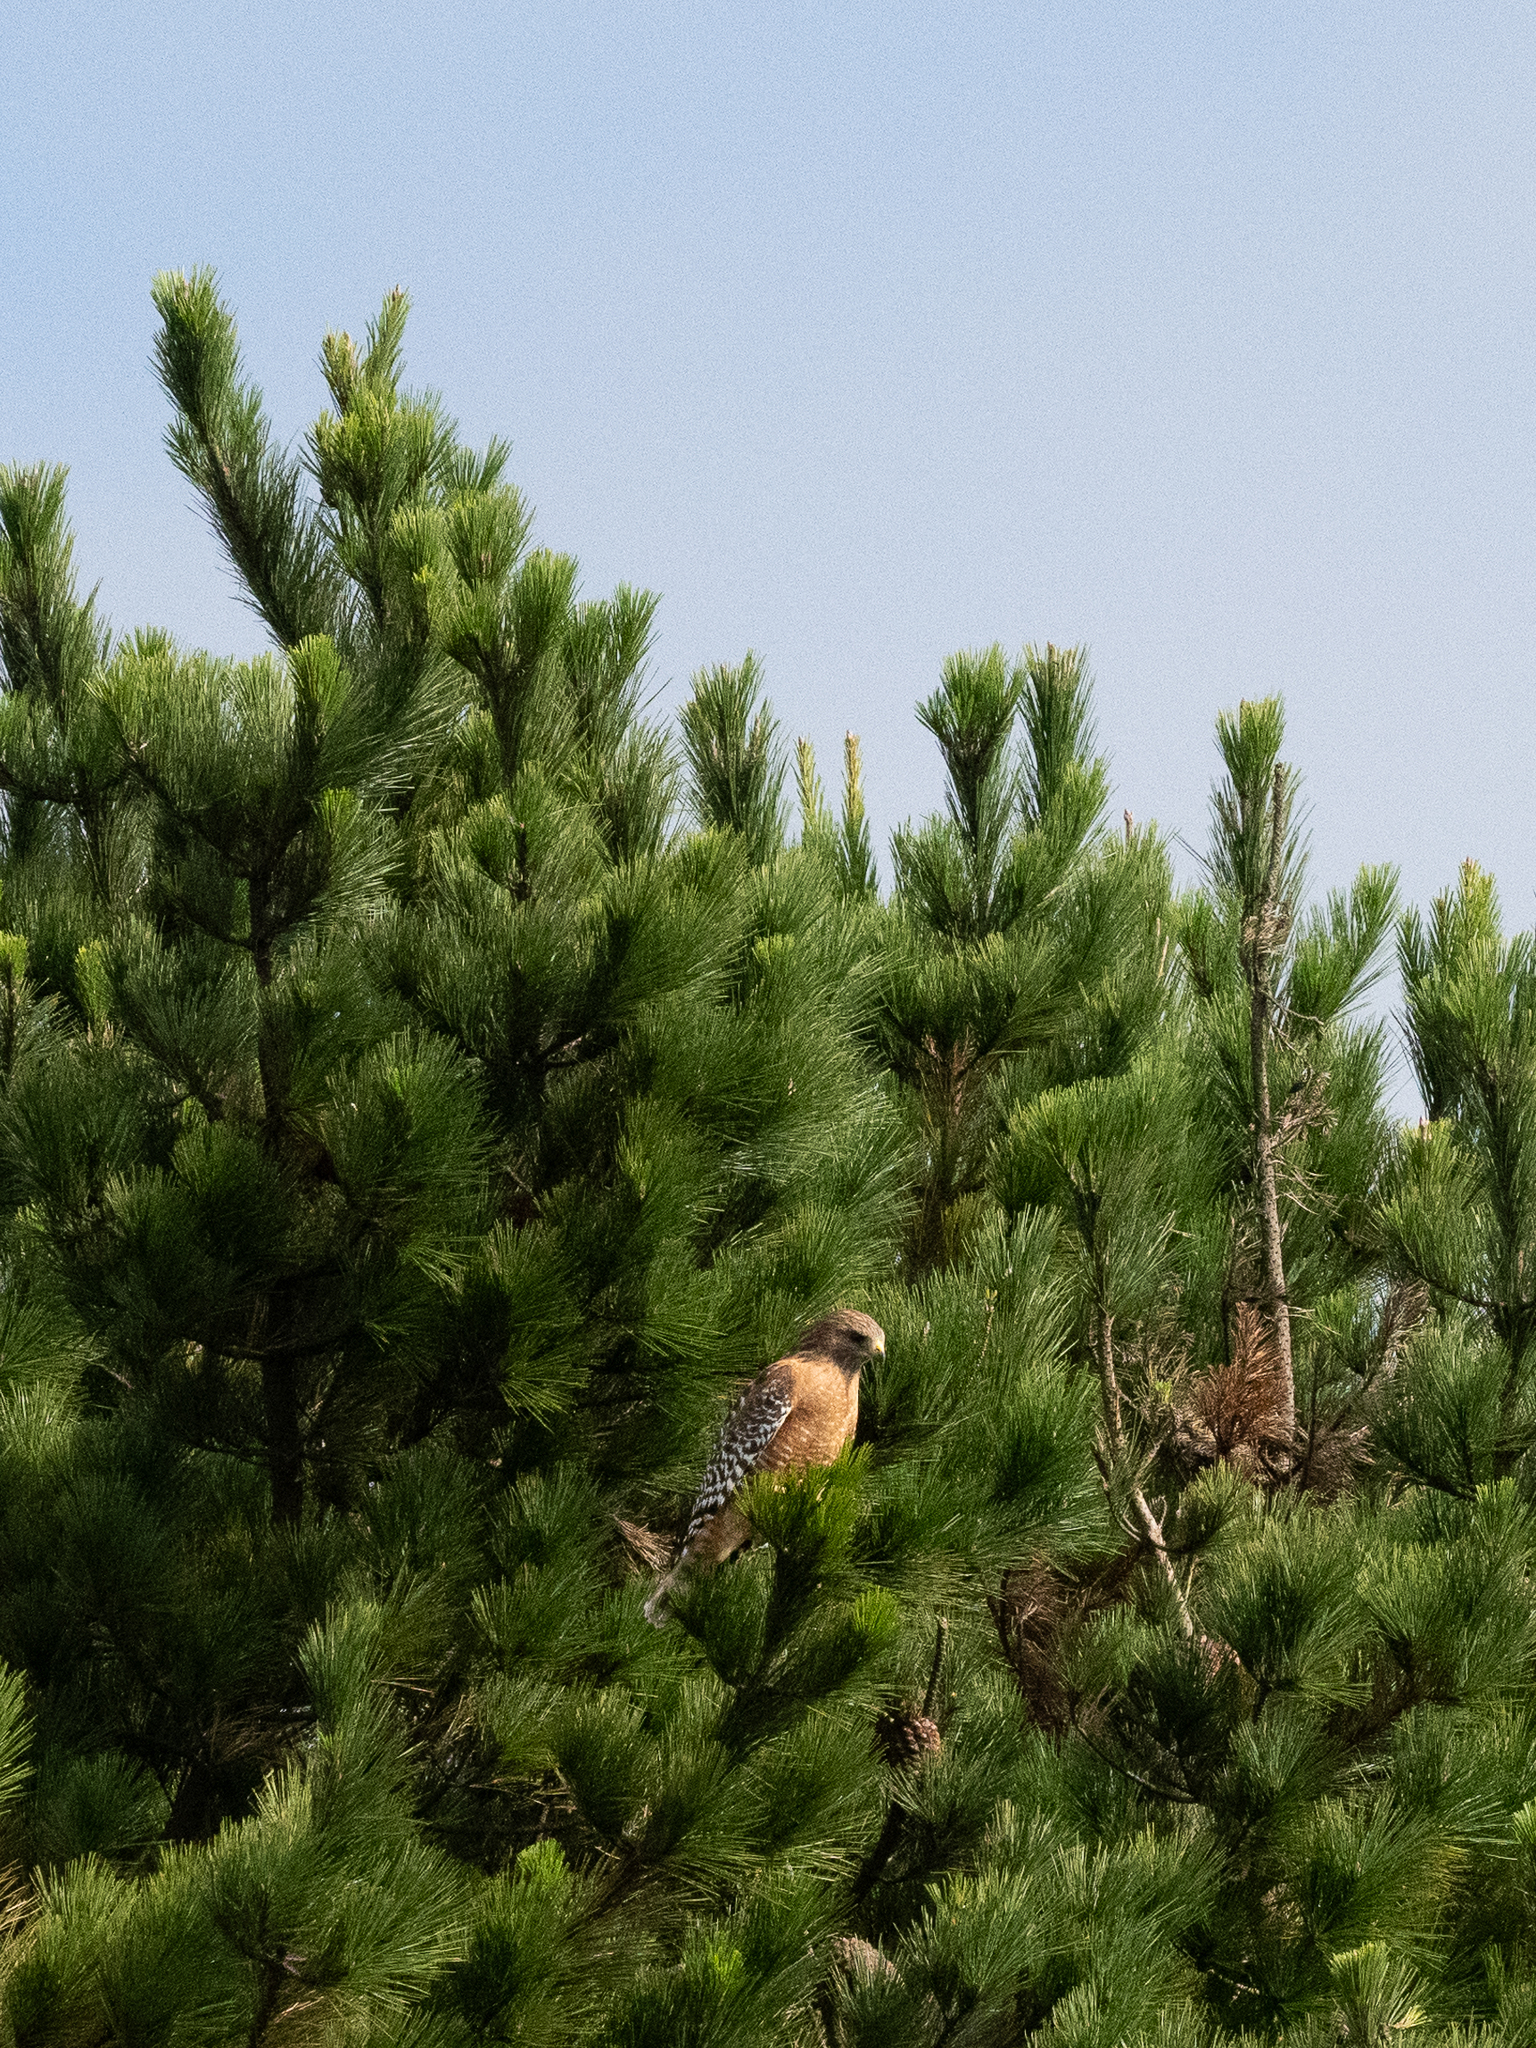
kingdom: Animalia
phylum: Chordata
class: Aves
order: Accipitriformes
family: Accipitridae
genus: Buteo
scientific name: Buteo lineatus
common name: Red-shouldered hawk
